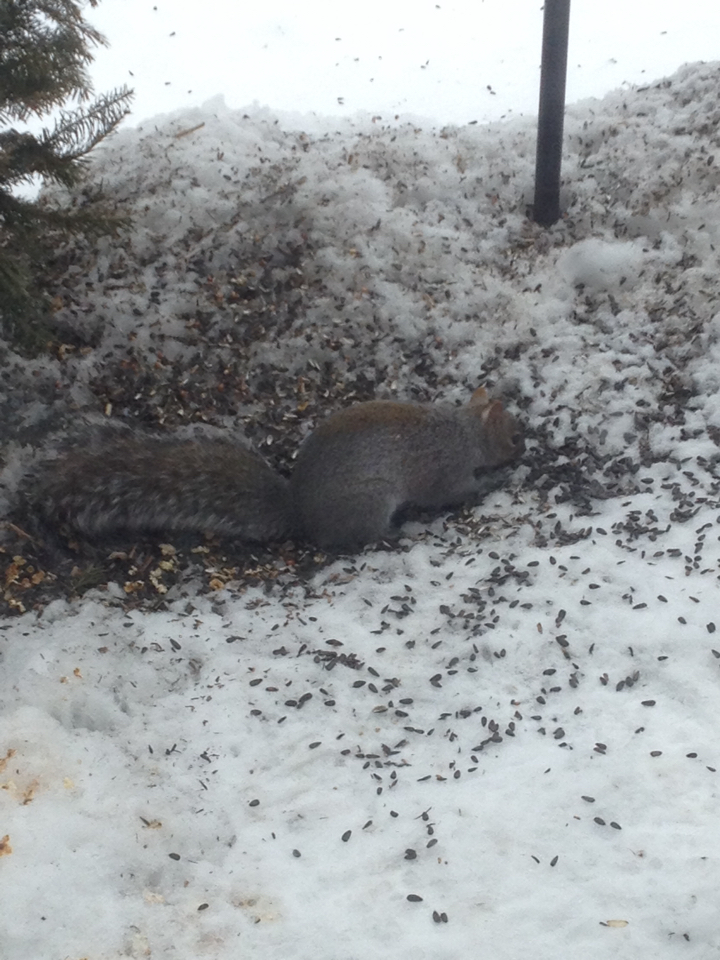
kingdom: Animalia
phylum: Chordata
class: Mammalia
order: Rodentia
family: Sciuridae
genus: Sciurus
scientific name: Sciurus carolinensis
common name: Eastern gray squirrel
